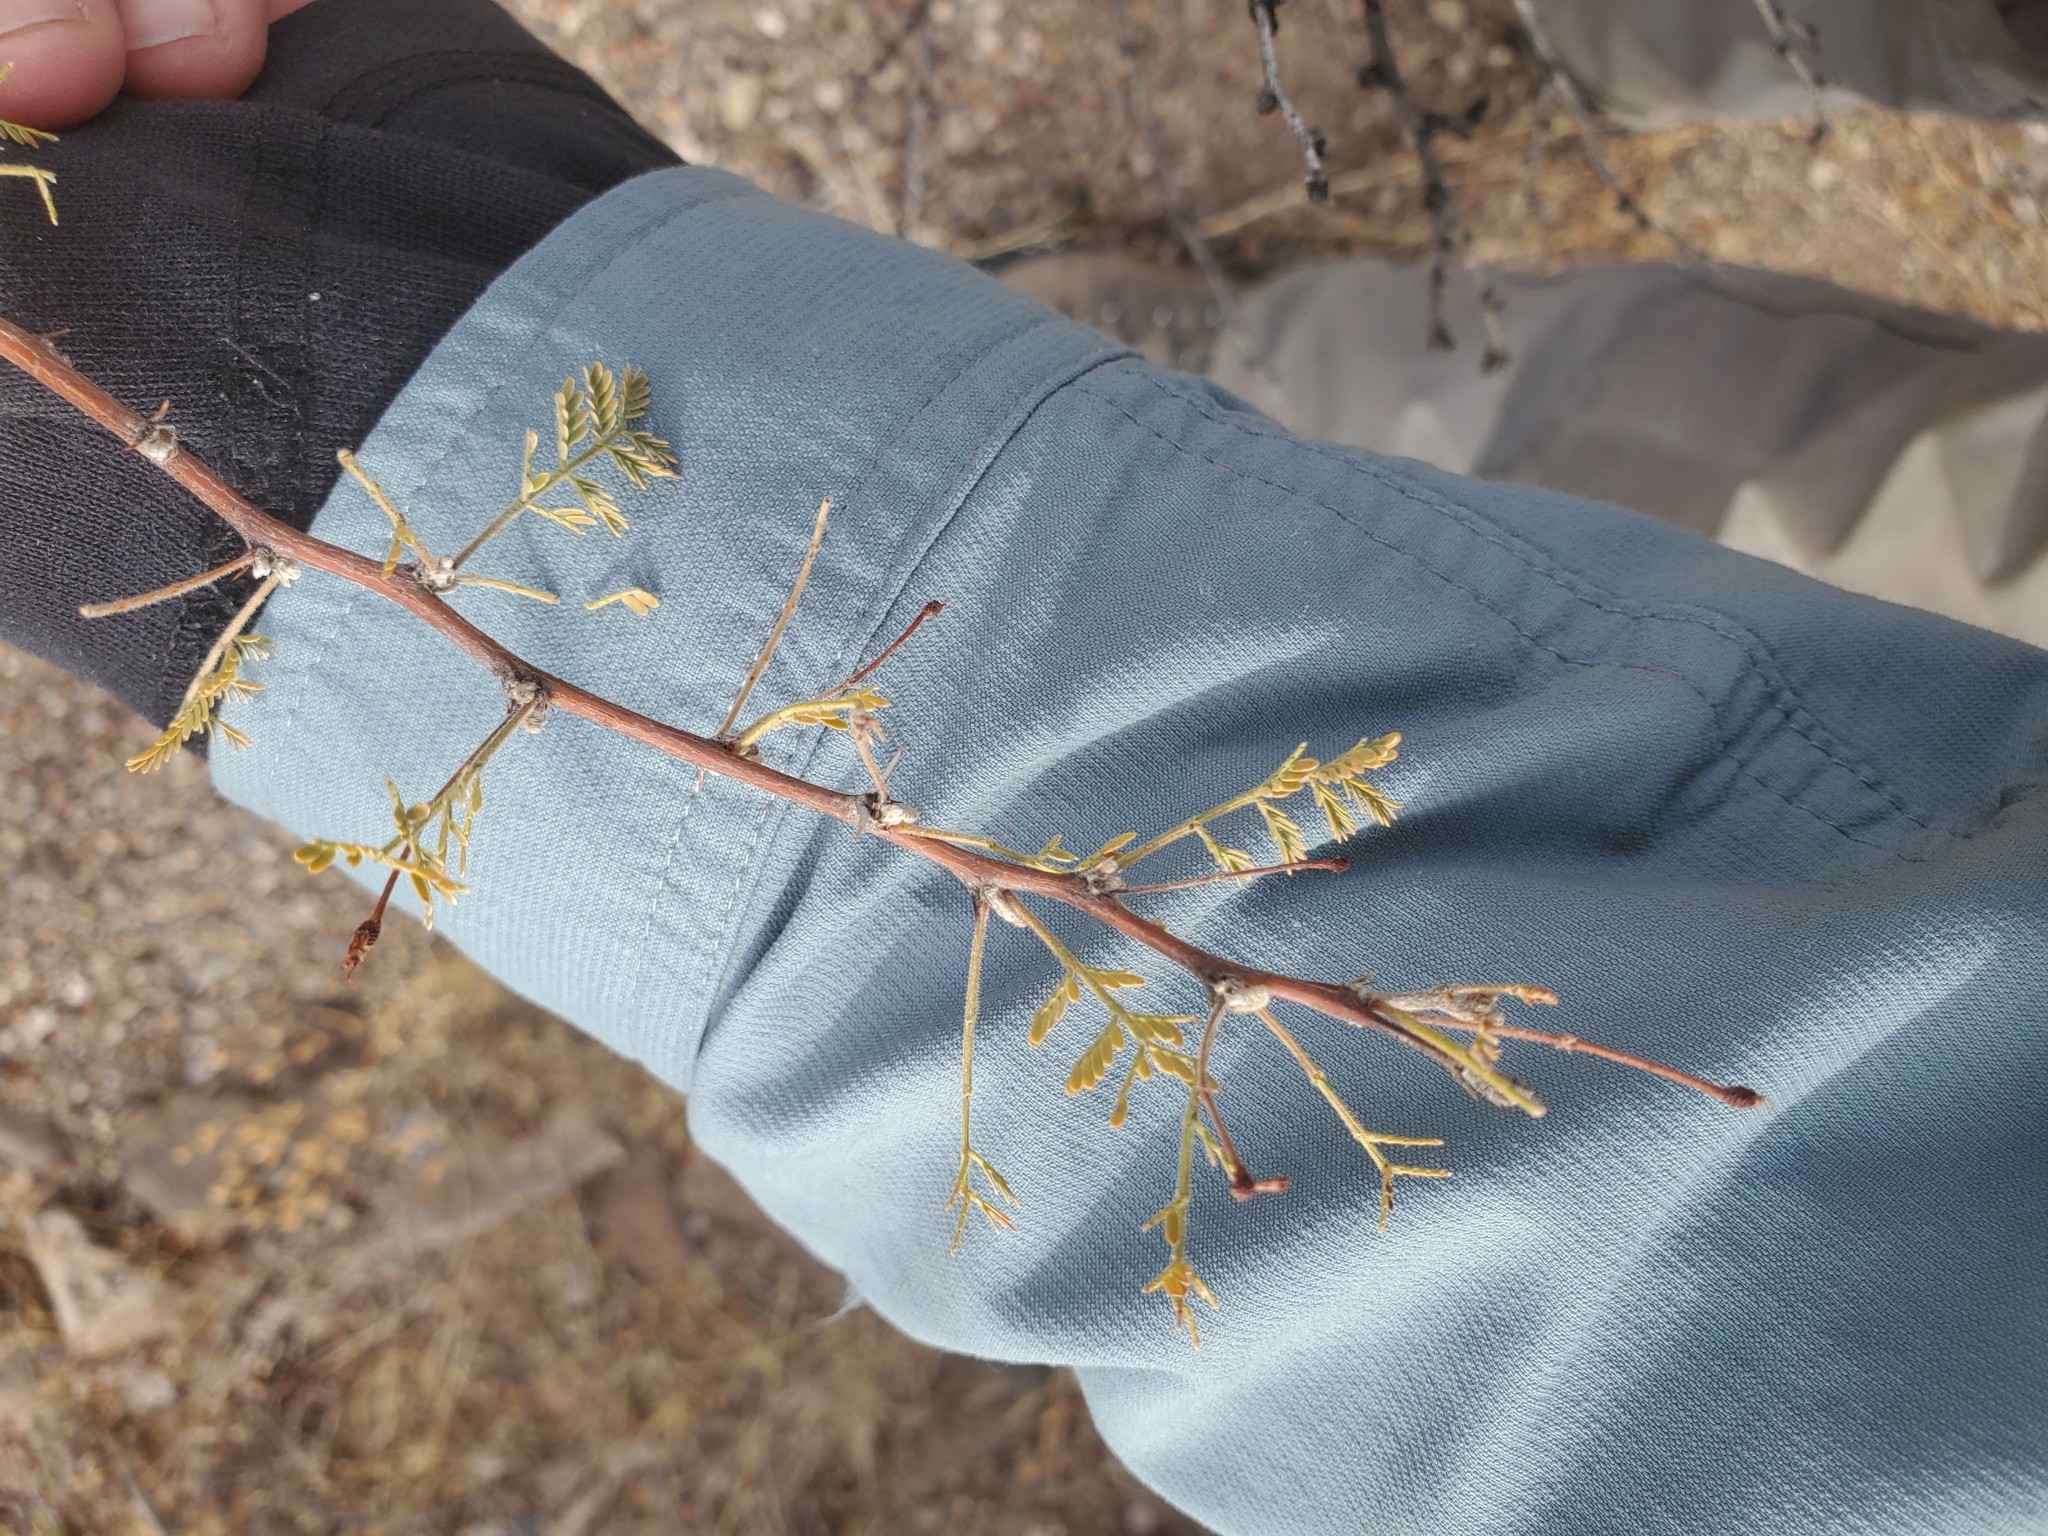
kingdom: Plantae
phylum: Tracheophyta
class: Magnoliopsida
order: Fabales
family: Fabaceae
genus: Vachellia
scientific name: Vachellia constricta
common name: Mescat acacia
